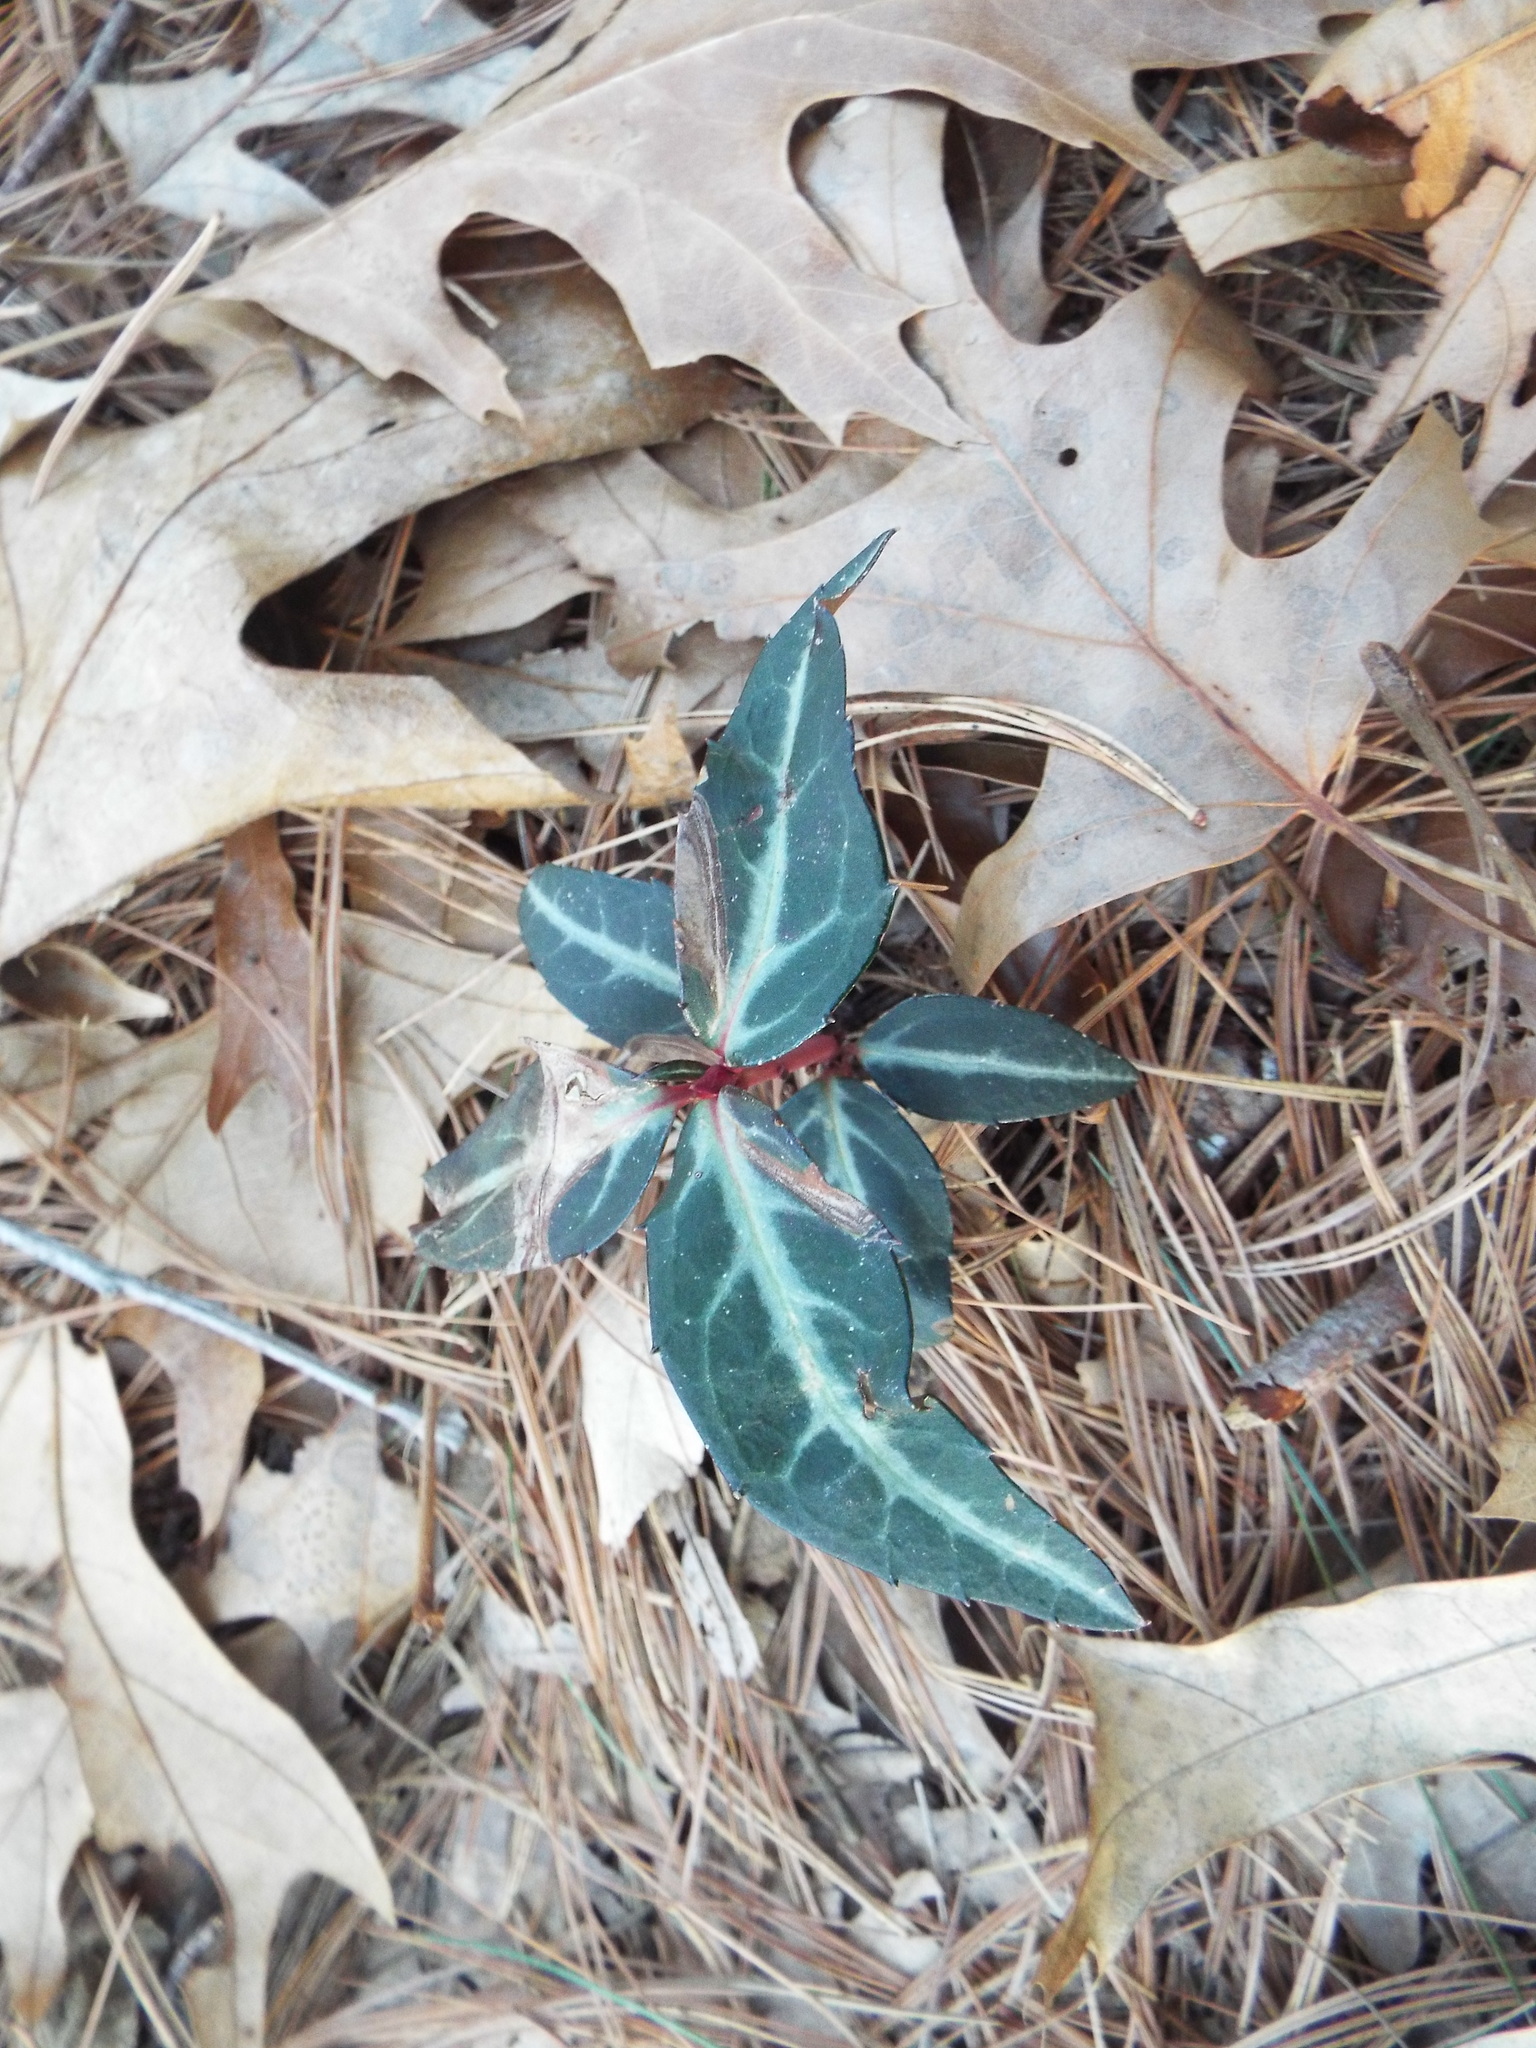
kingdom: Plantae
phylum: Tracheophyta
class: Magnoliopsida
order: Ericales
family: Ericaceae
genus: Chimaphila
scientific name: Chimaphila maculata
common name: Spotted pipsissewa
